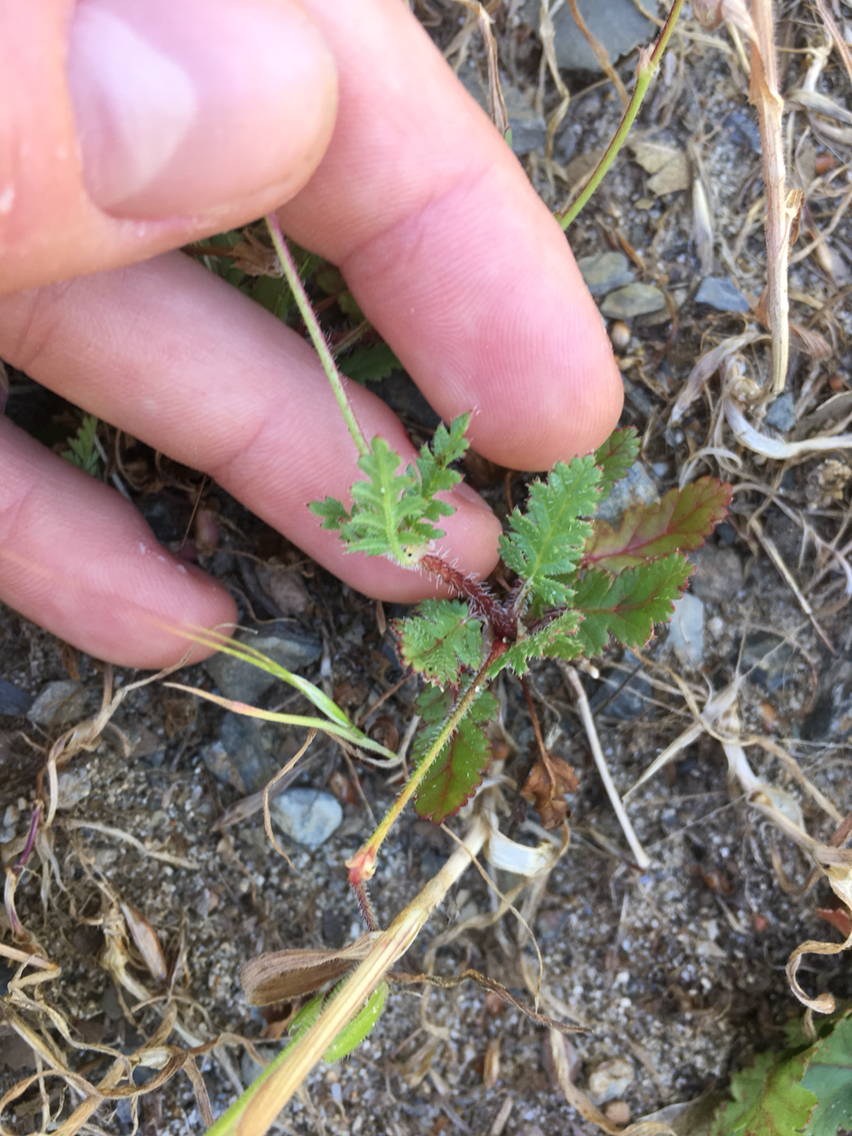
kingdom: Plantae
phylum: Tracheophyta
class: Magnoliopsida
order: Geraniales
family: Geraniaceae
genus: Erodium
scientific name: Erodium botrys
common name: Mediterranean stork's-bill
